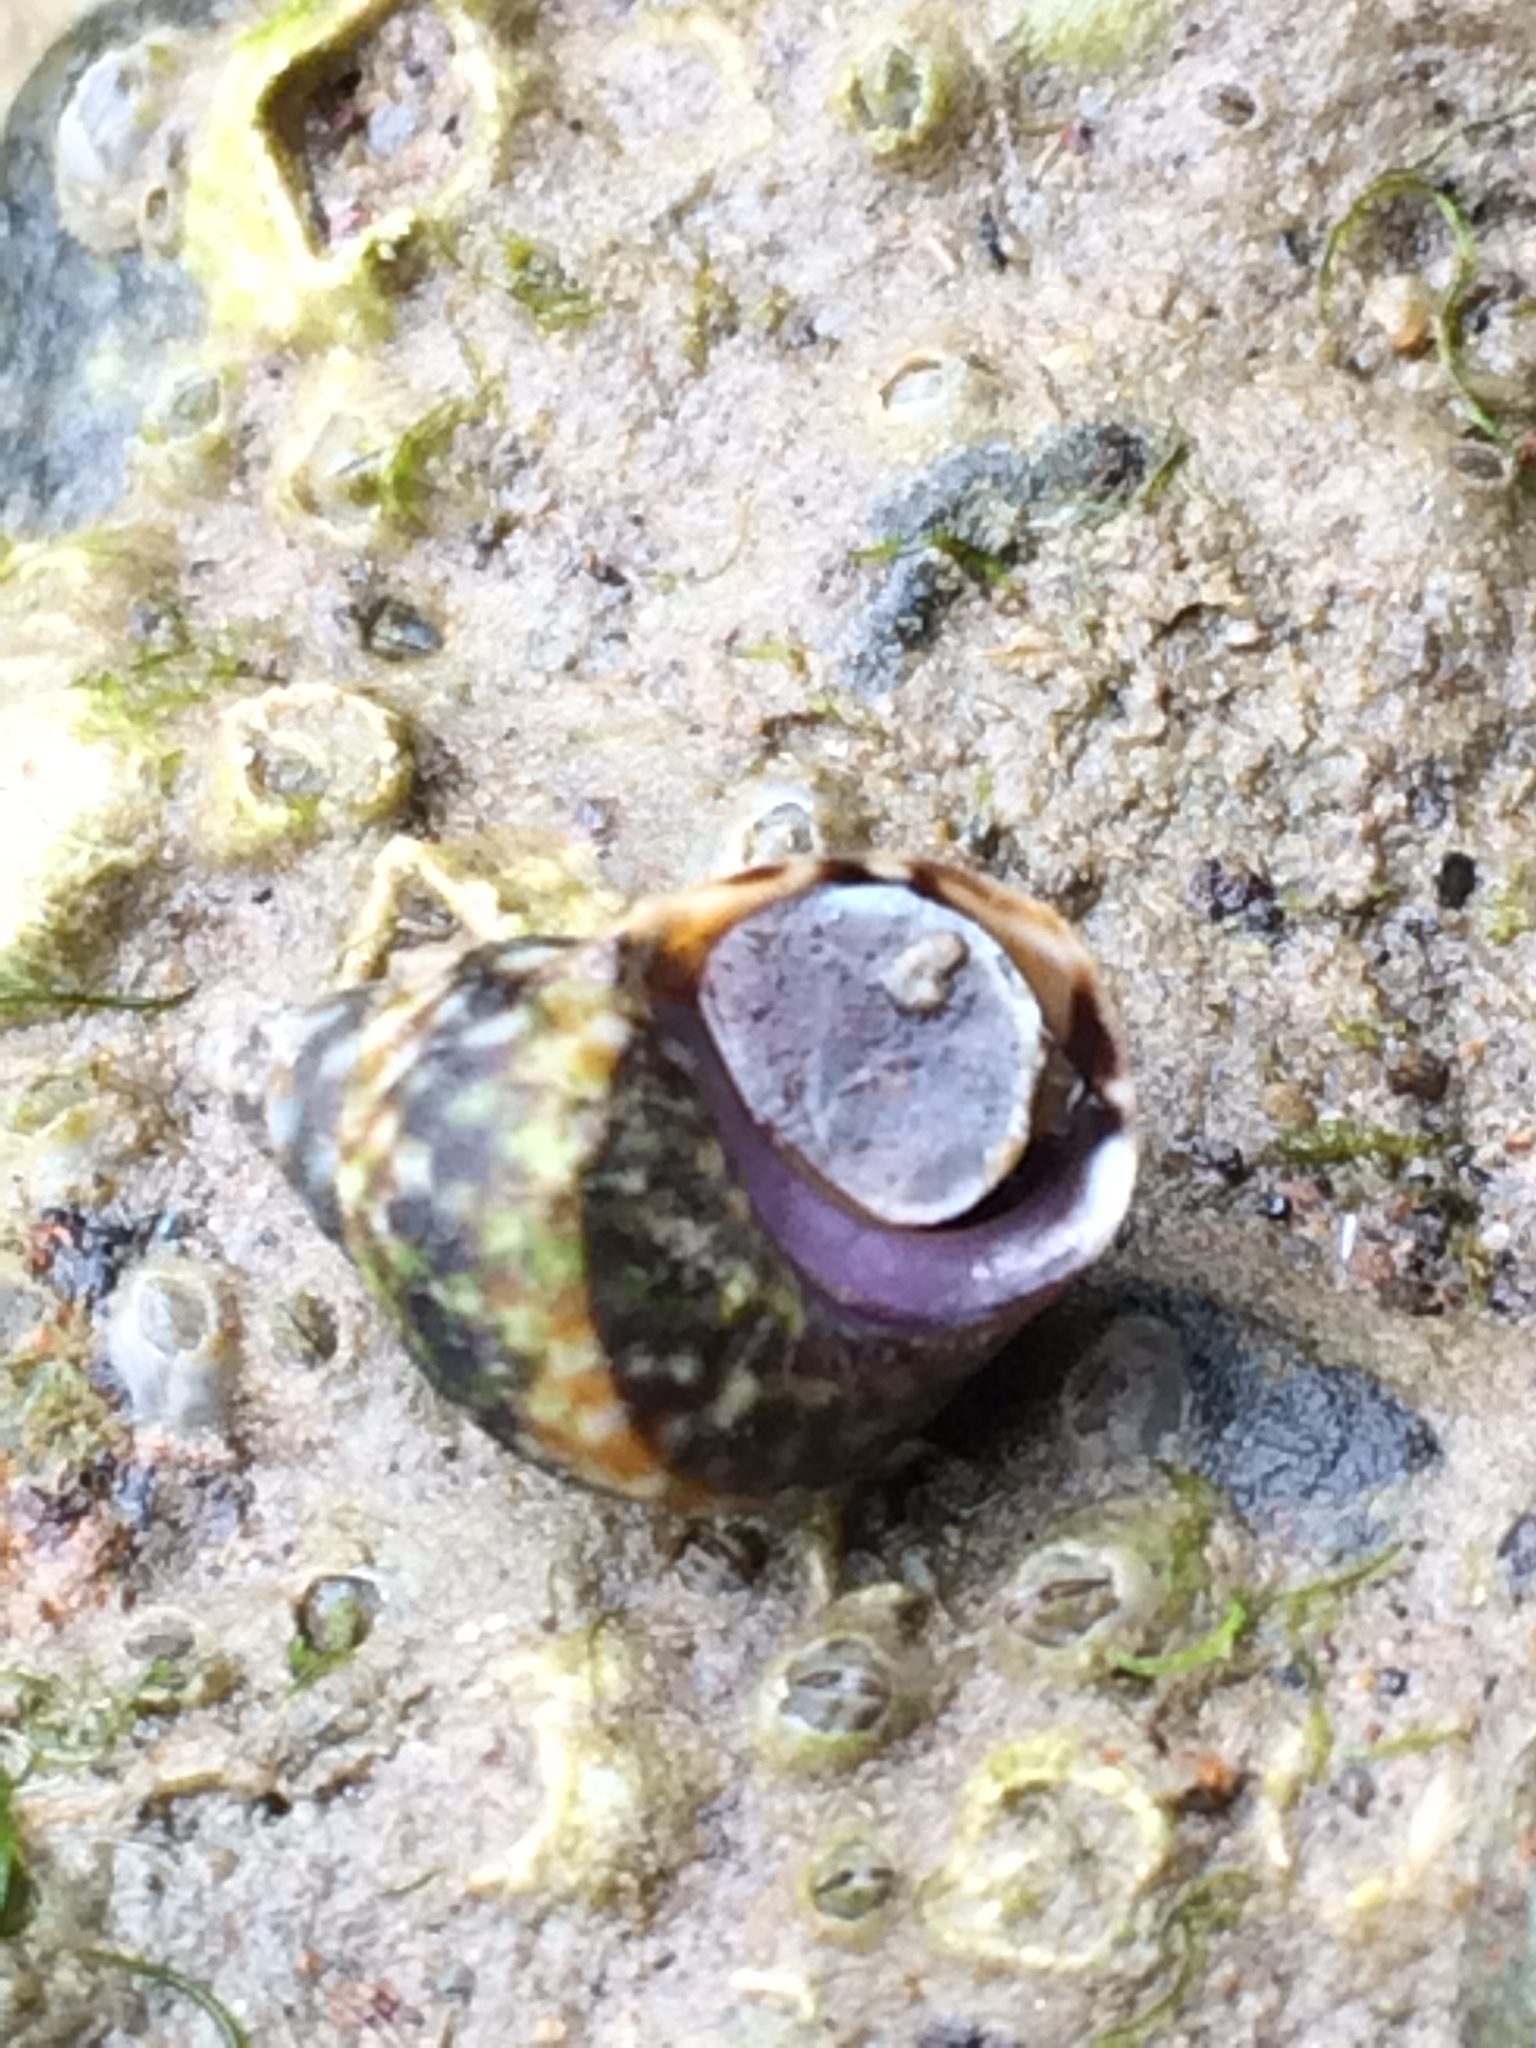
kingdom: Animalia
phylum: Mollusca
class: Gastropoda
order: Littorinimorpha
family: Littorinidae
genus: Littorina
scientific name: Littorina scutulata
